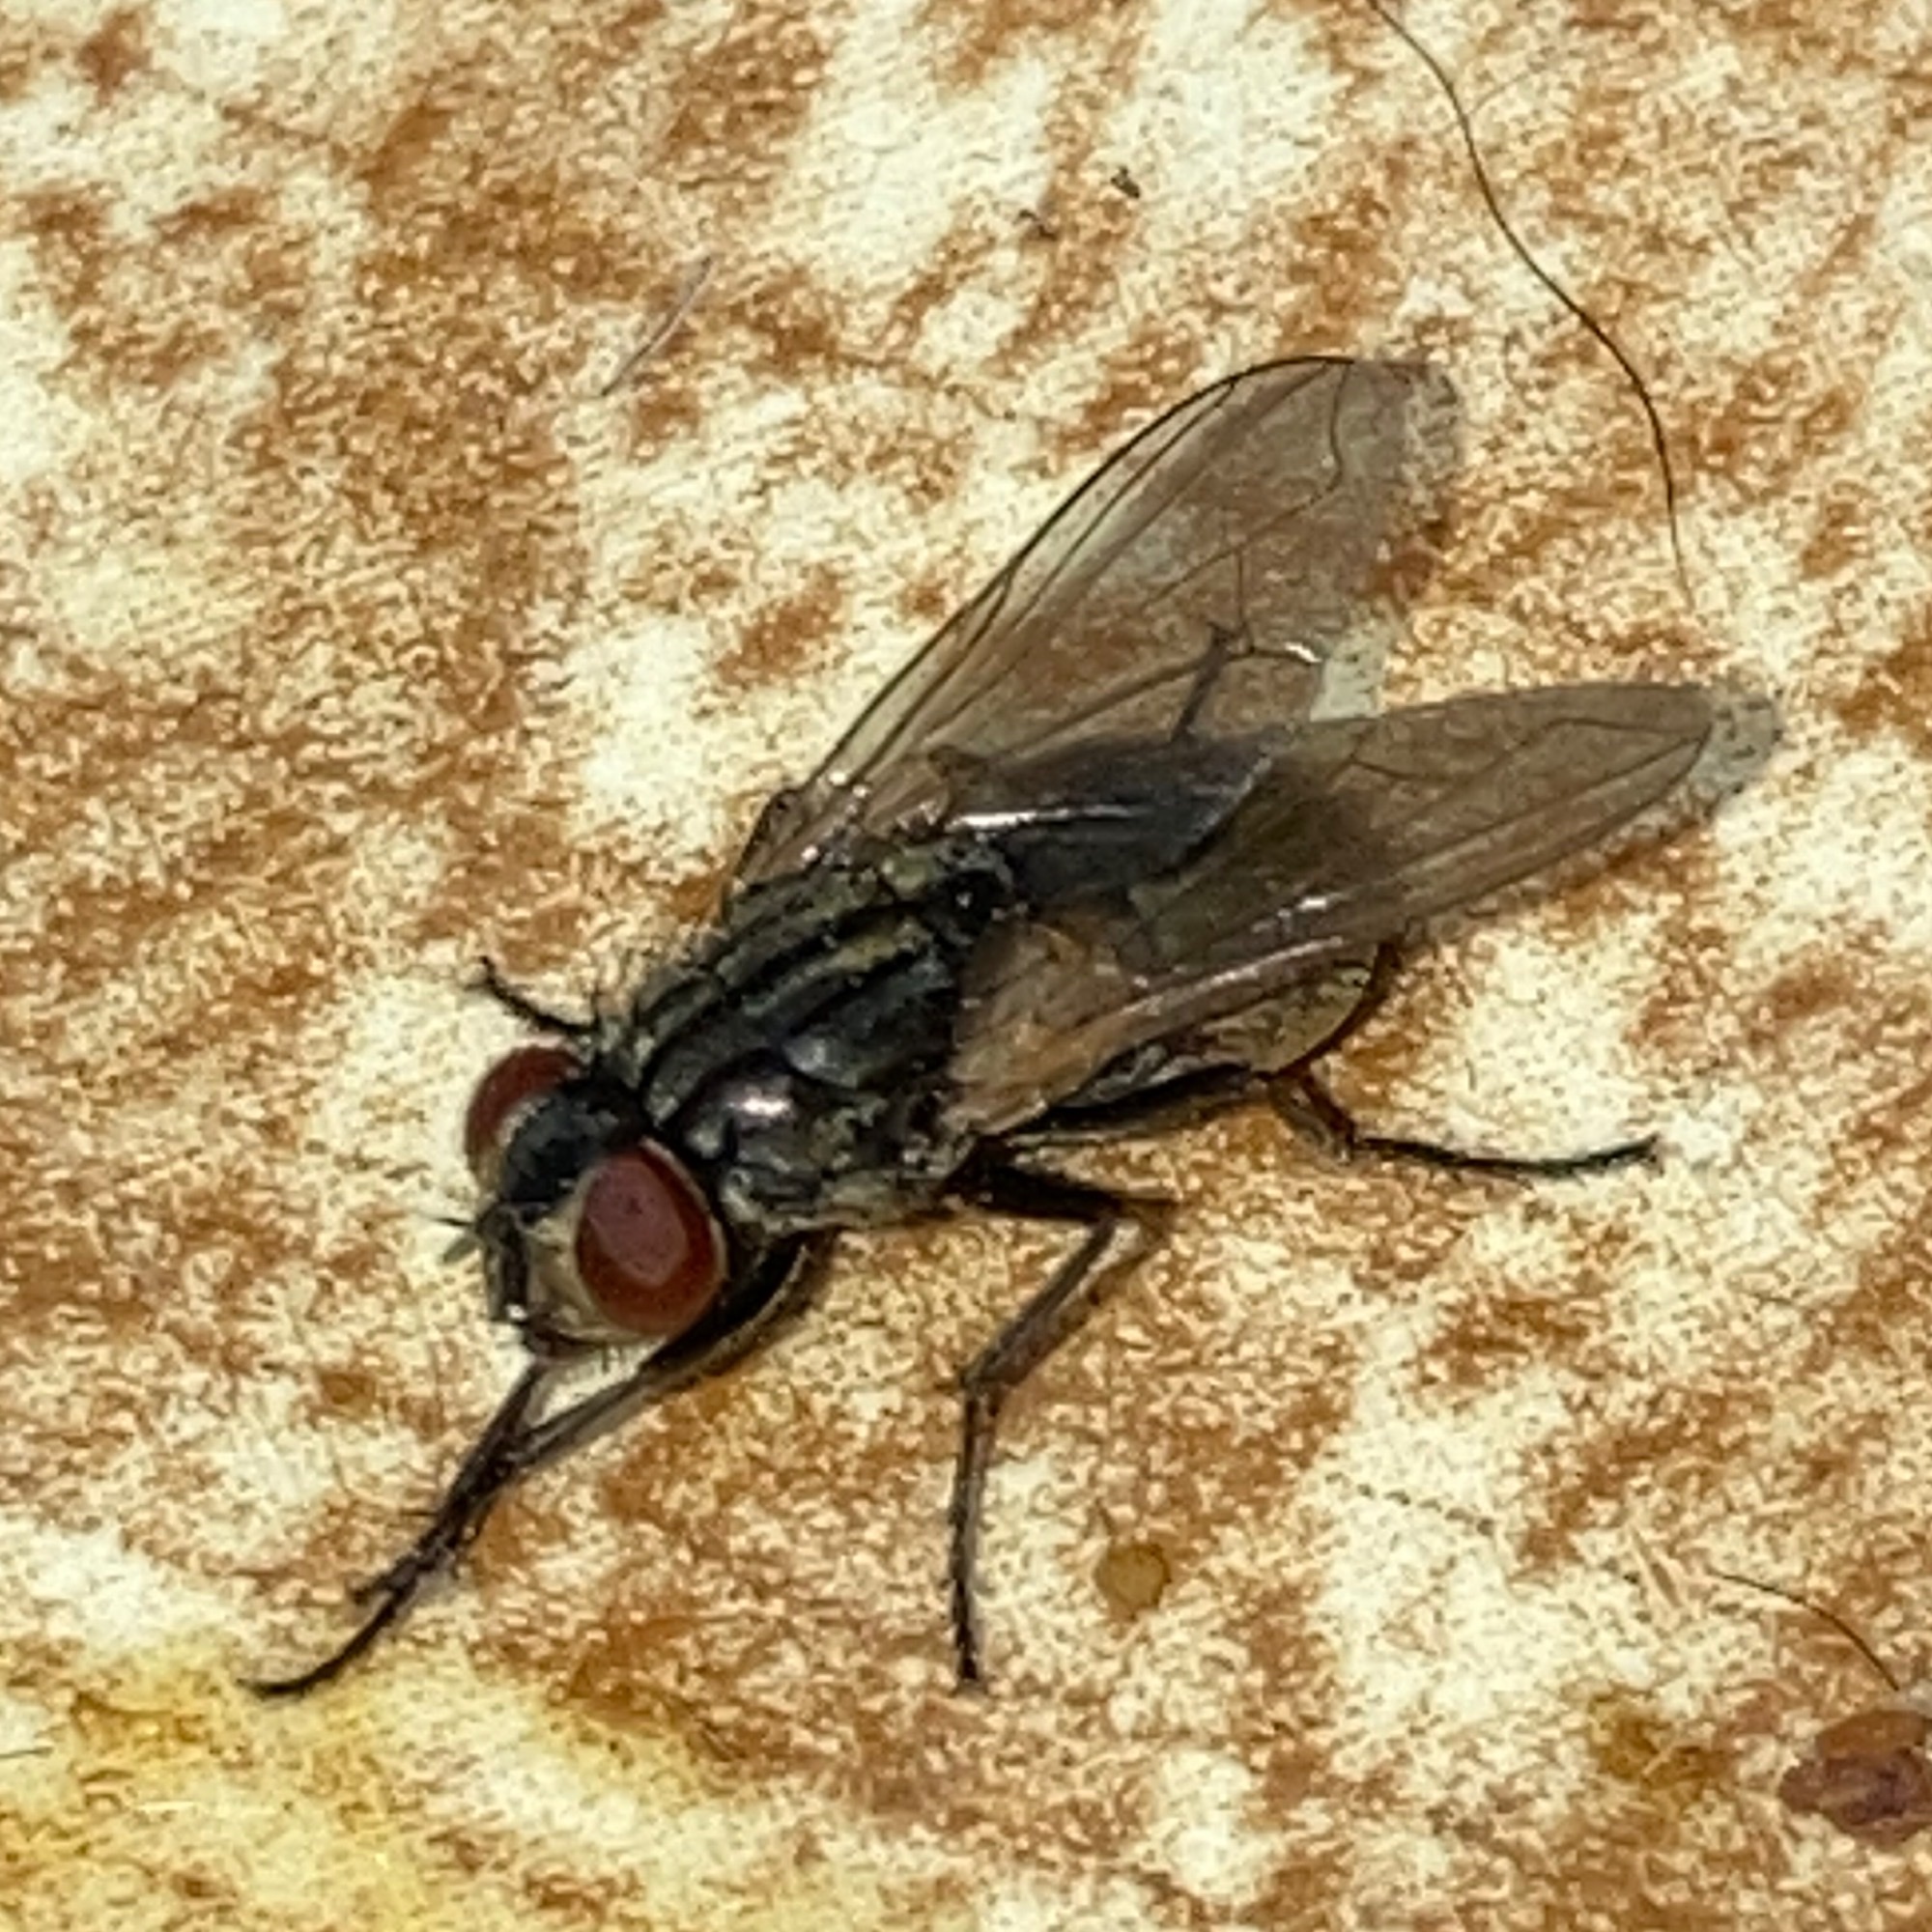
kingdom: Animalia
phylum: Arthropoda
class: Insecta
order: Diptera
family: Muscidae
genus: Musca
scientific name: Musca domestica
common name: House fly
